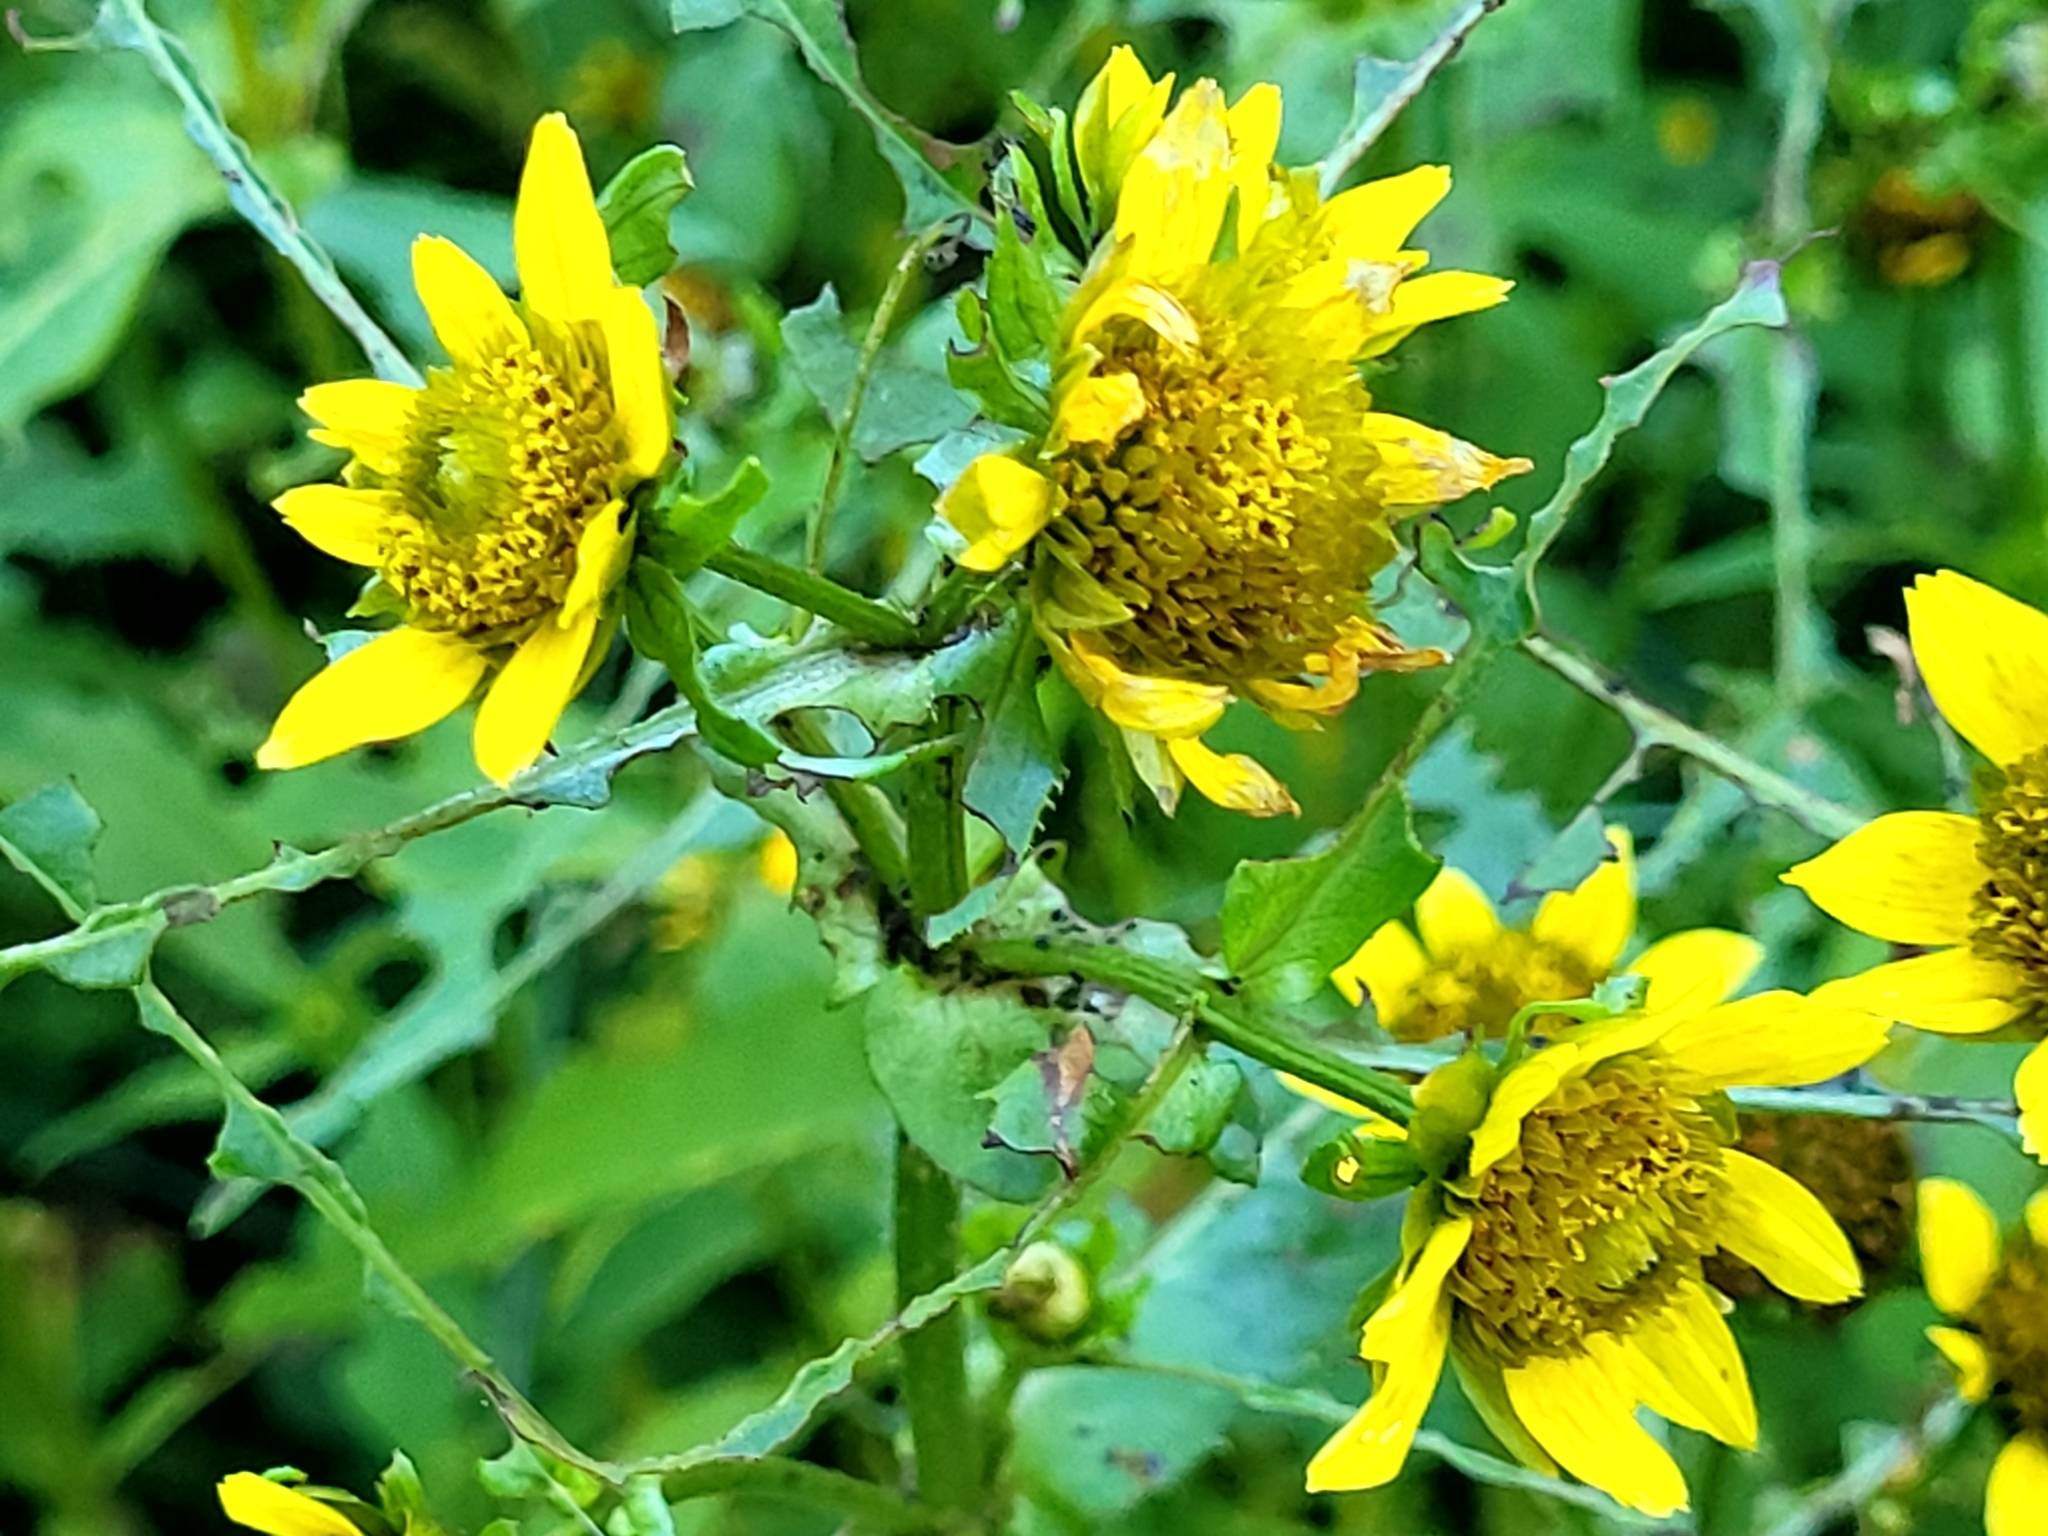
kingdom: Plantae
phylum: Tracheophyta
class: Magnoliopsida
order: Asterales
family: Asteraceae
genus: Bidens
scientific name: Bidens cernua
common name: Nodding bur-marigold
